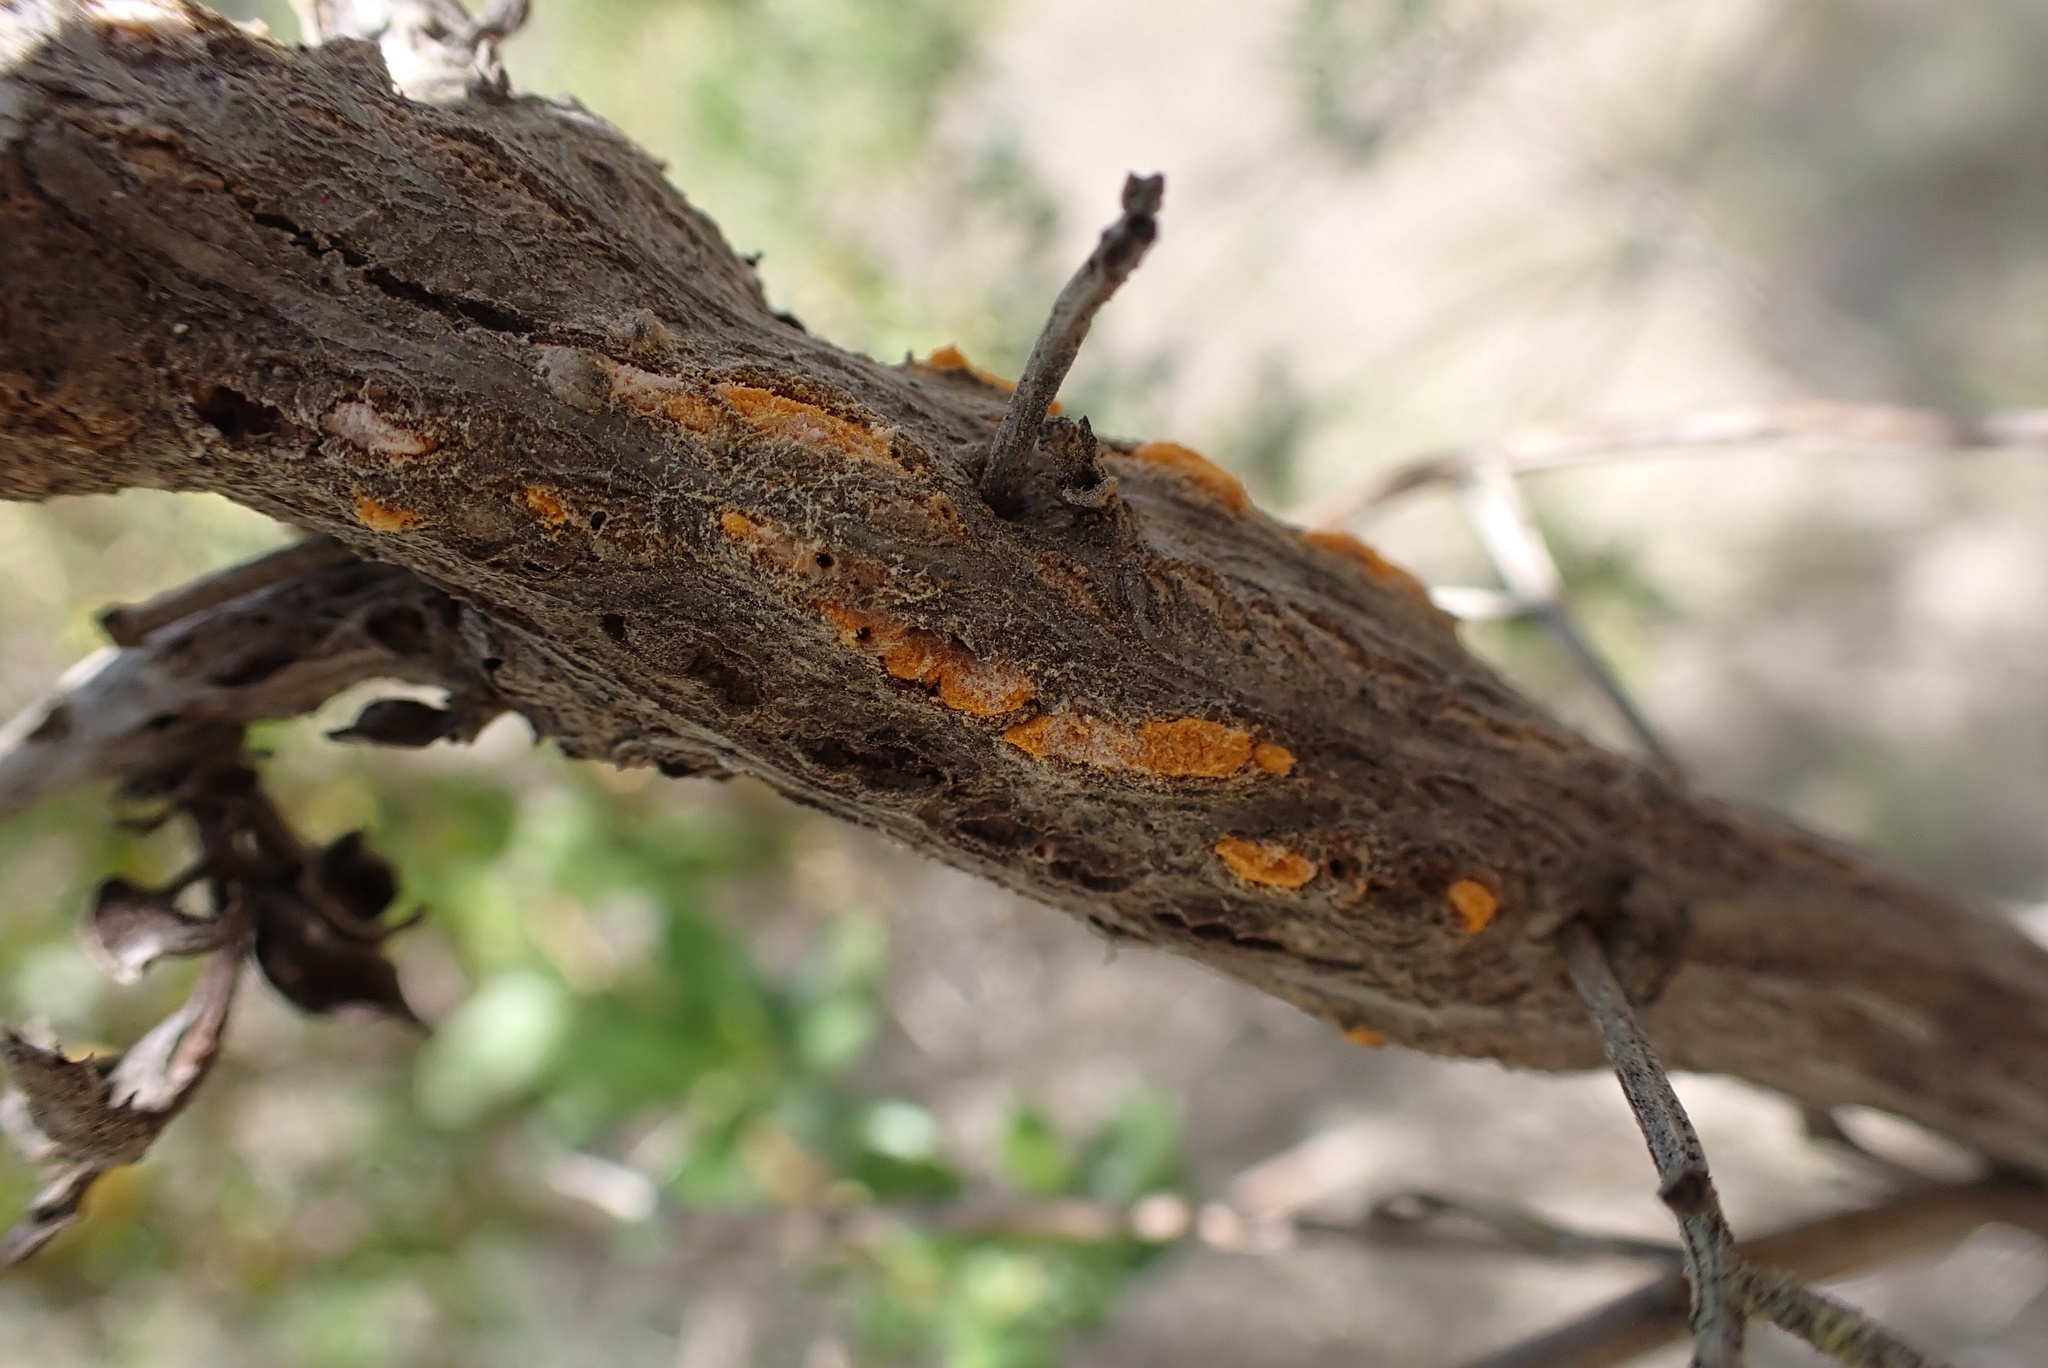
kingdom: Fungi
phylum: Basidiomycota
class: Pucciniomycetes
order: Pucciniales
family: Pucciniaceae
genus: Eriosporangium
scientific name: Eriosporangium evadens
